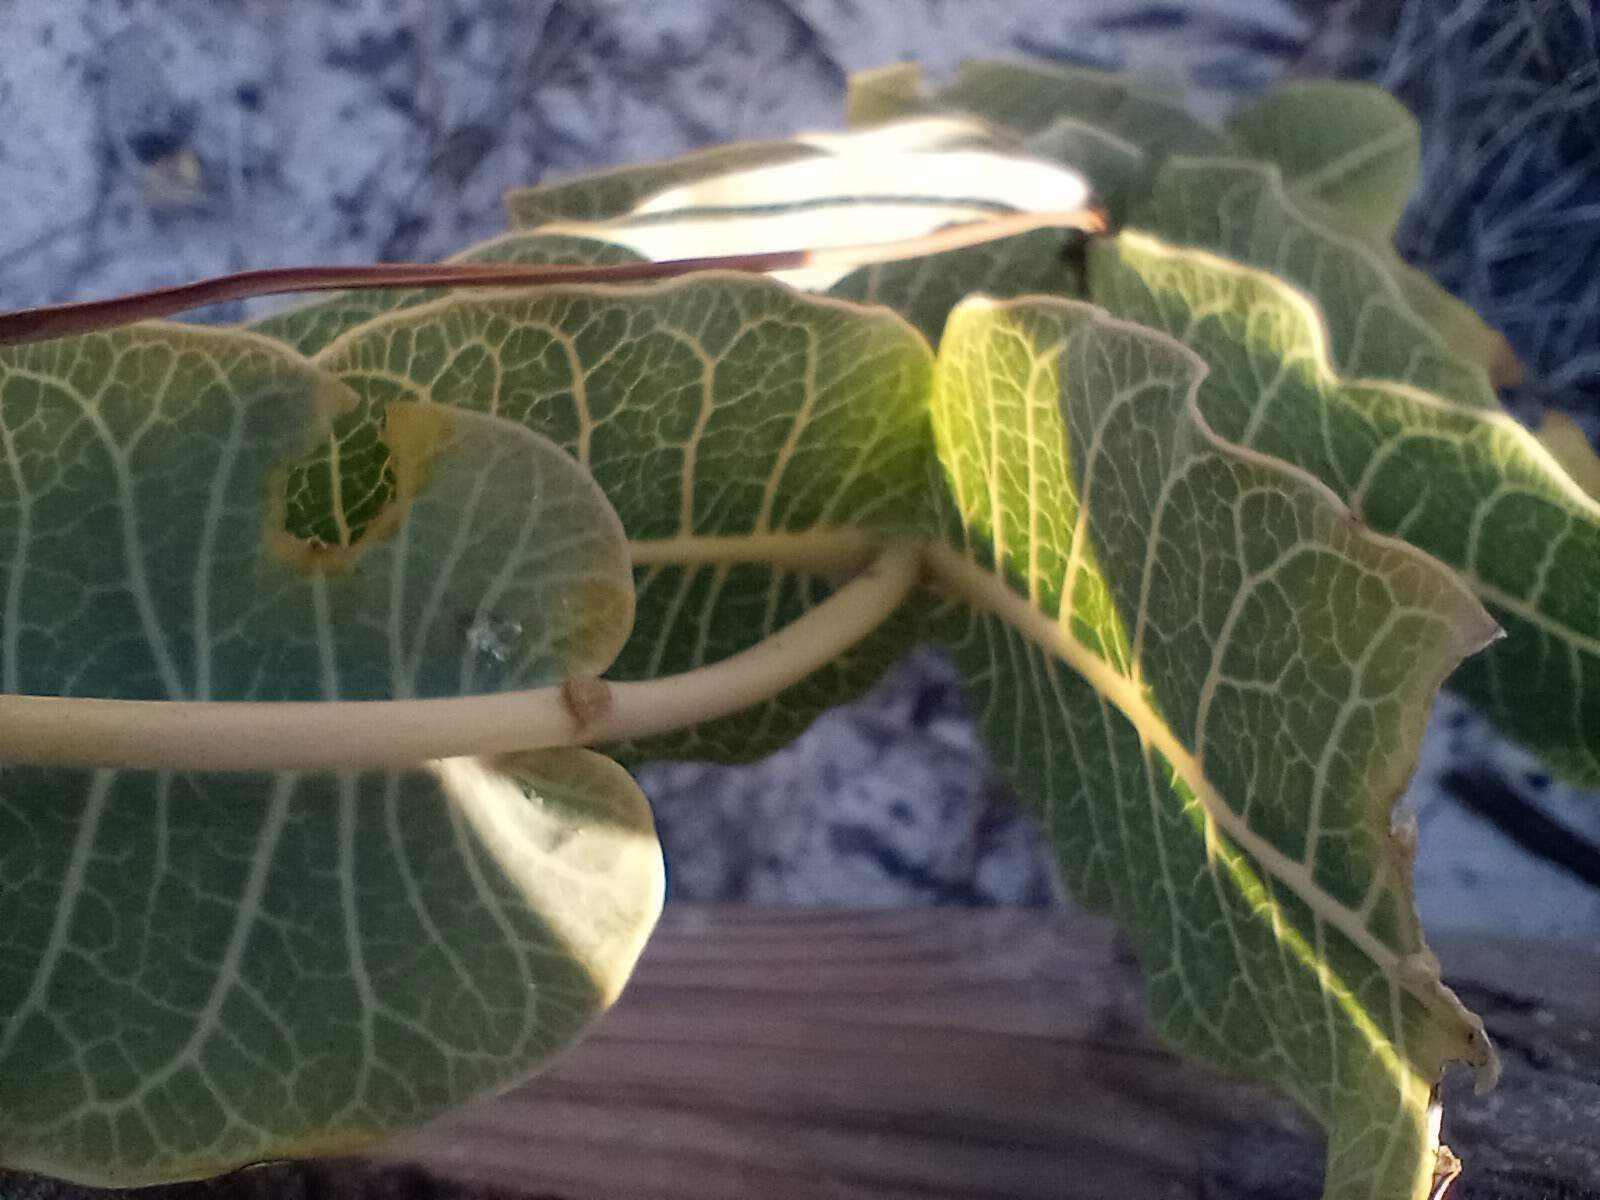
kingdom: Plantae
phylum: Tracheophyta
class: Magnoliopsida
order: Gentianales
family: Apocynaceae
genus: Asclepias
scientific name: Asclepias humistrata
